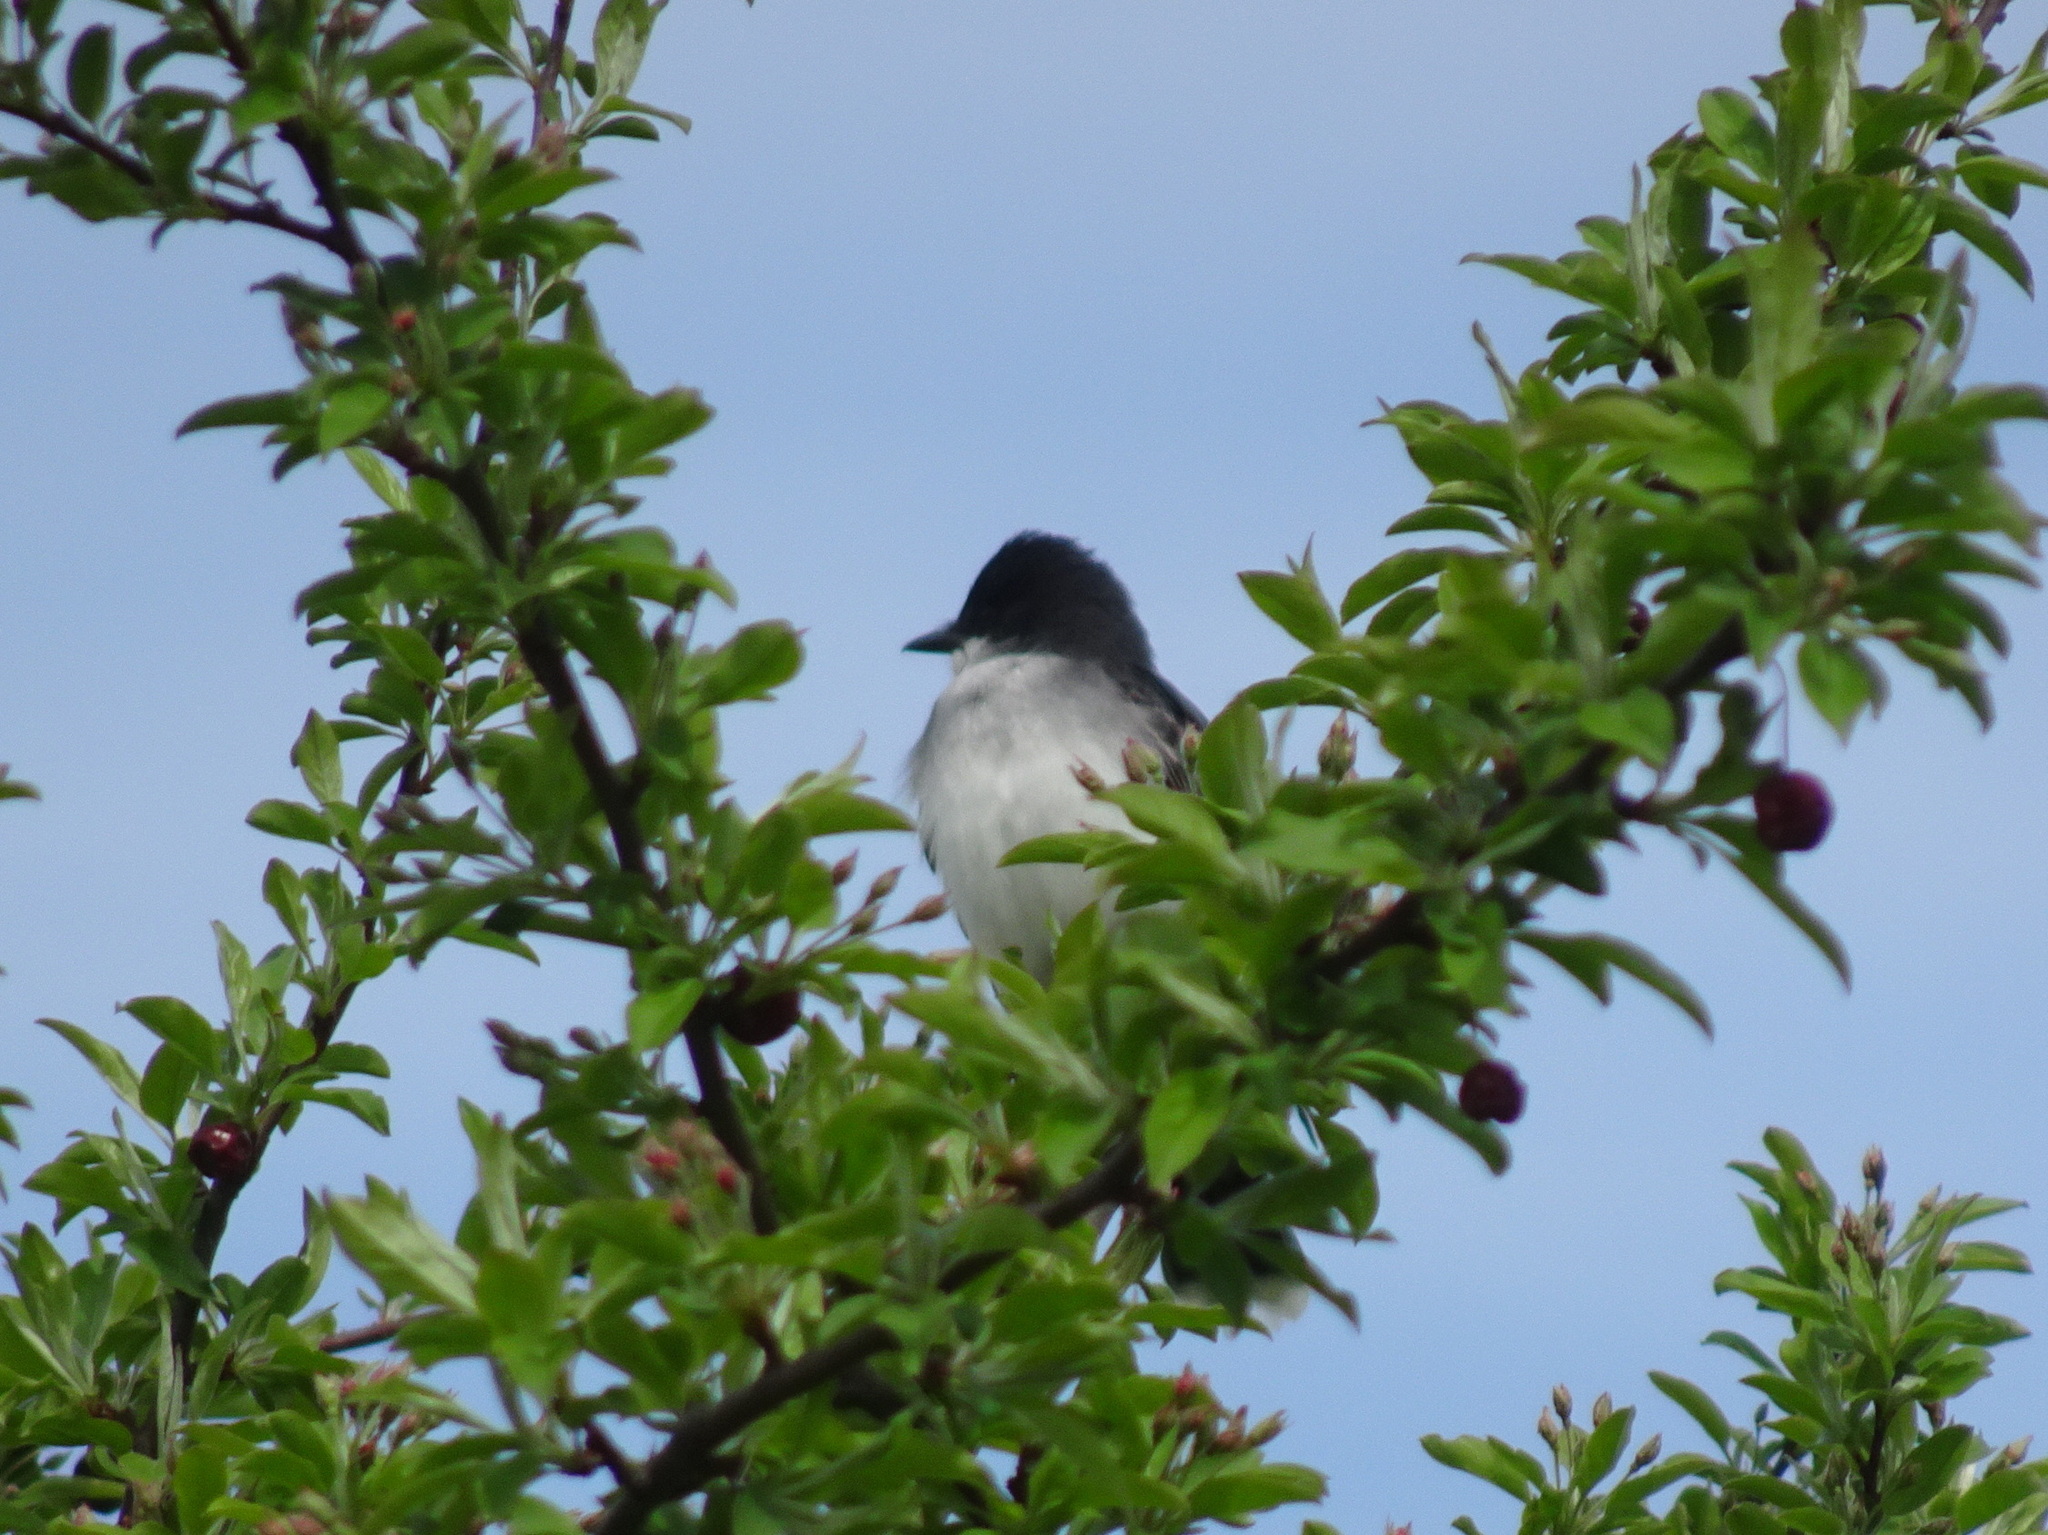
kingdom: Animalia
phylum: Chordata
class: Aves
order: Passeriformes
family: Tyrannidae
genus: Tyrannus
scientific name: Tyrannus tyrannus
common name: Eastern kingbird
